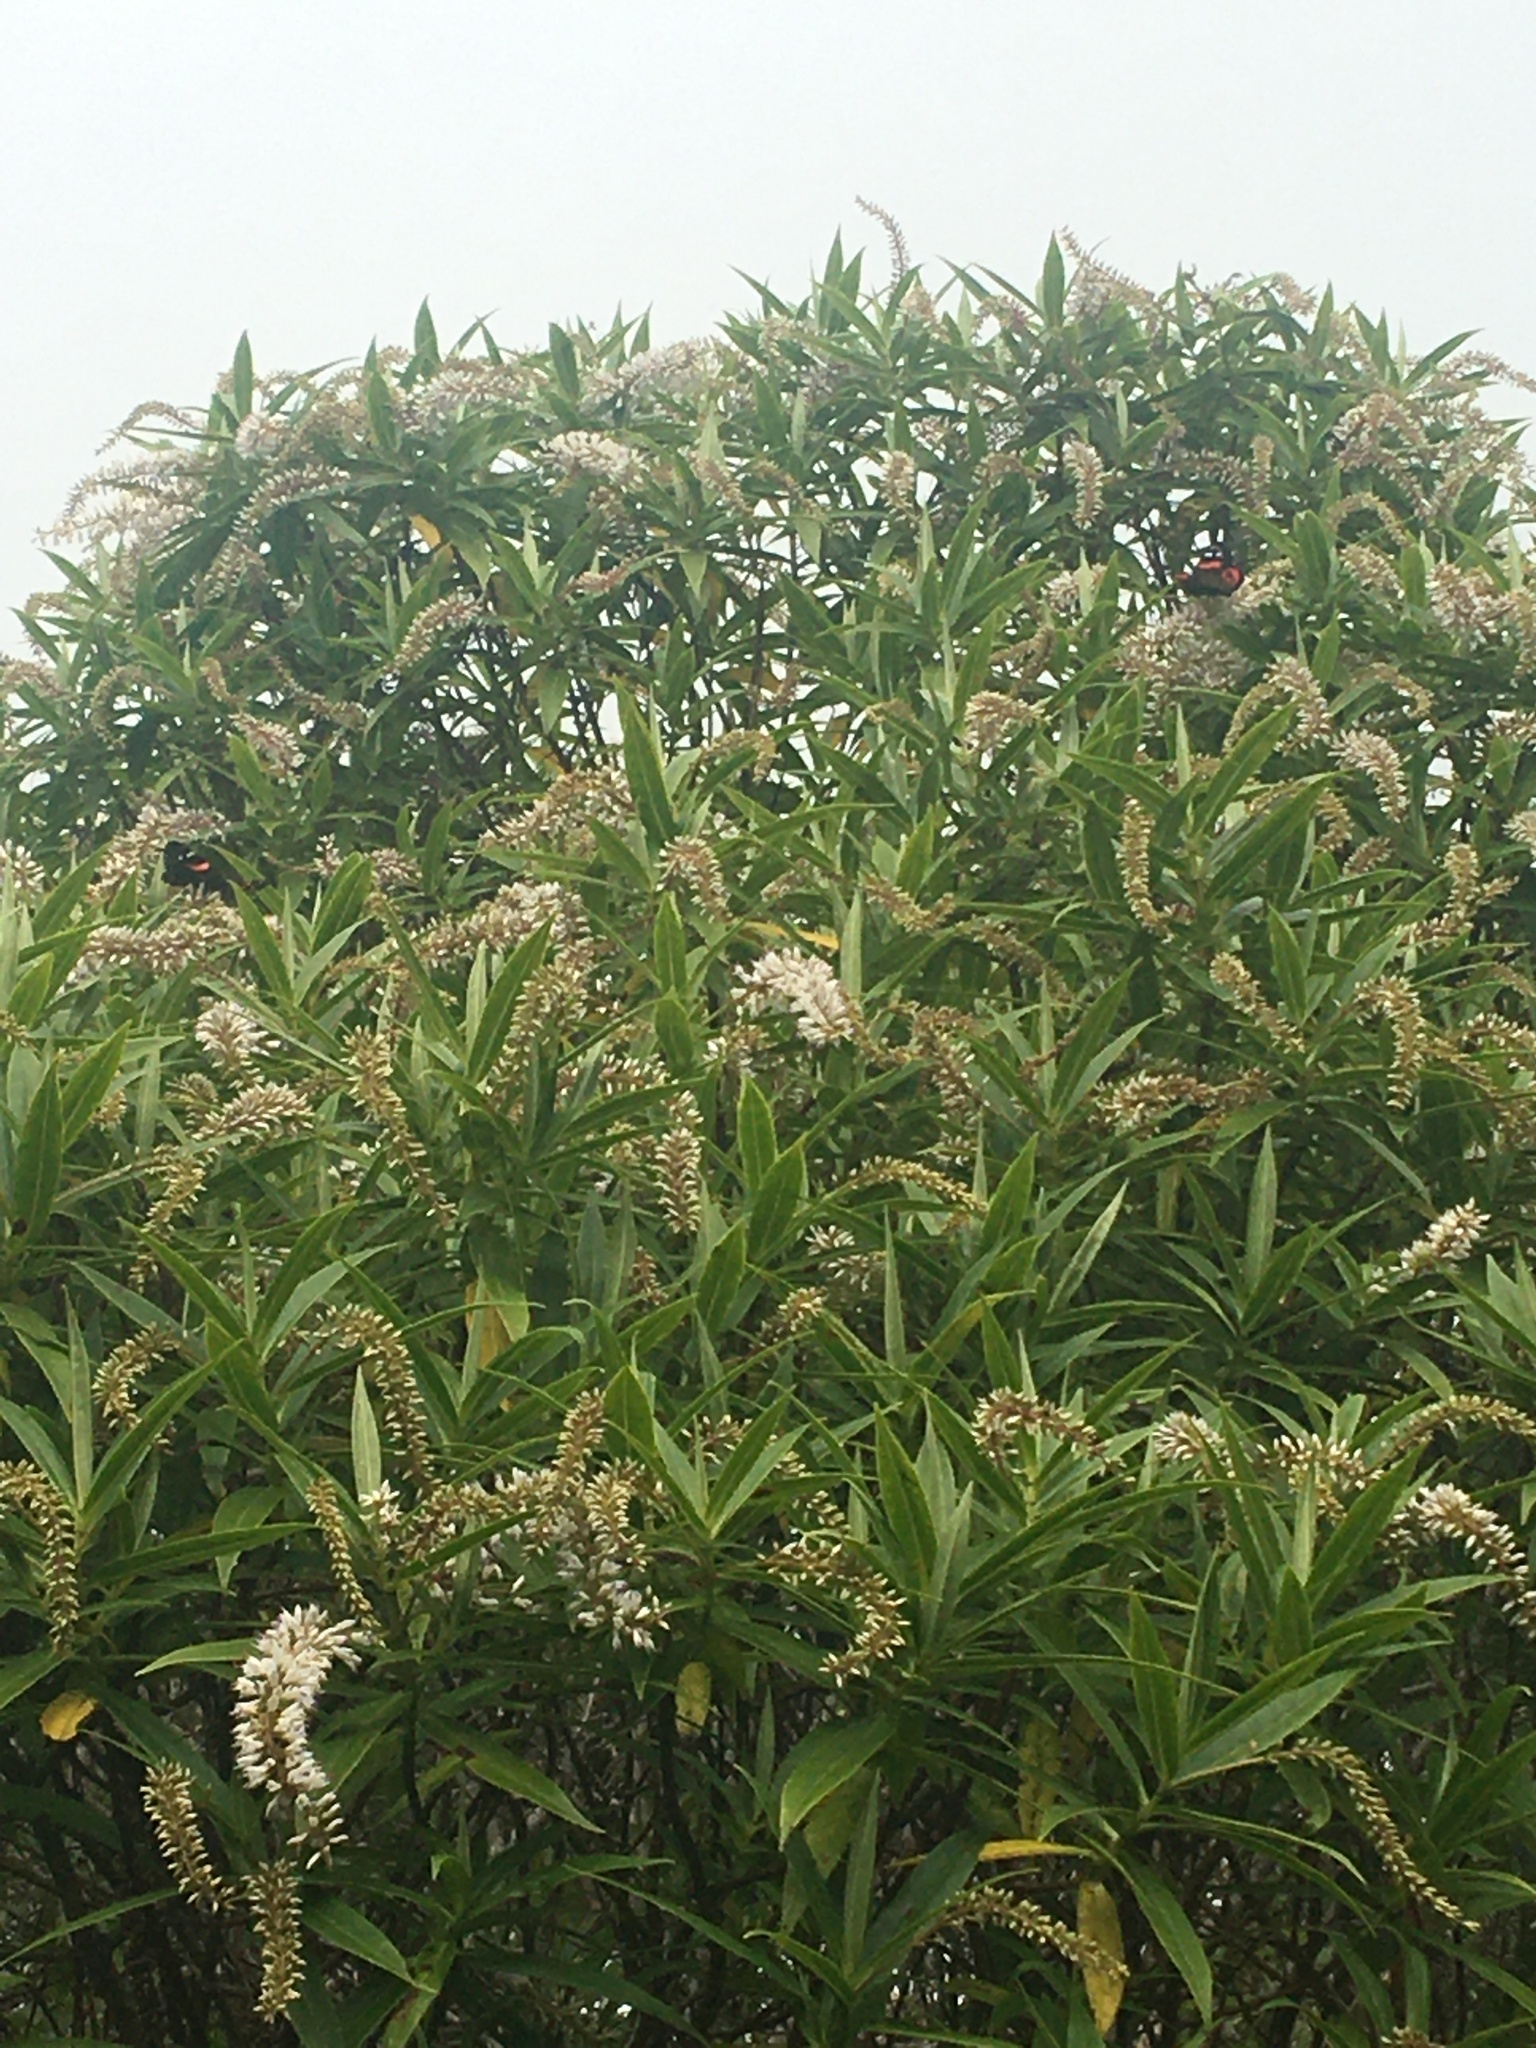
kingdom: Animalia
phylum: Arthropoda
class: Insecta
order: Lepidoptera
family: Nymphalidae
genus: Vanessa
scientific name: Vanessa gonerilla
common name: New zealand red admiral
